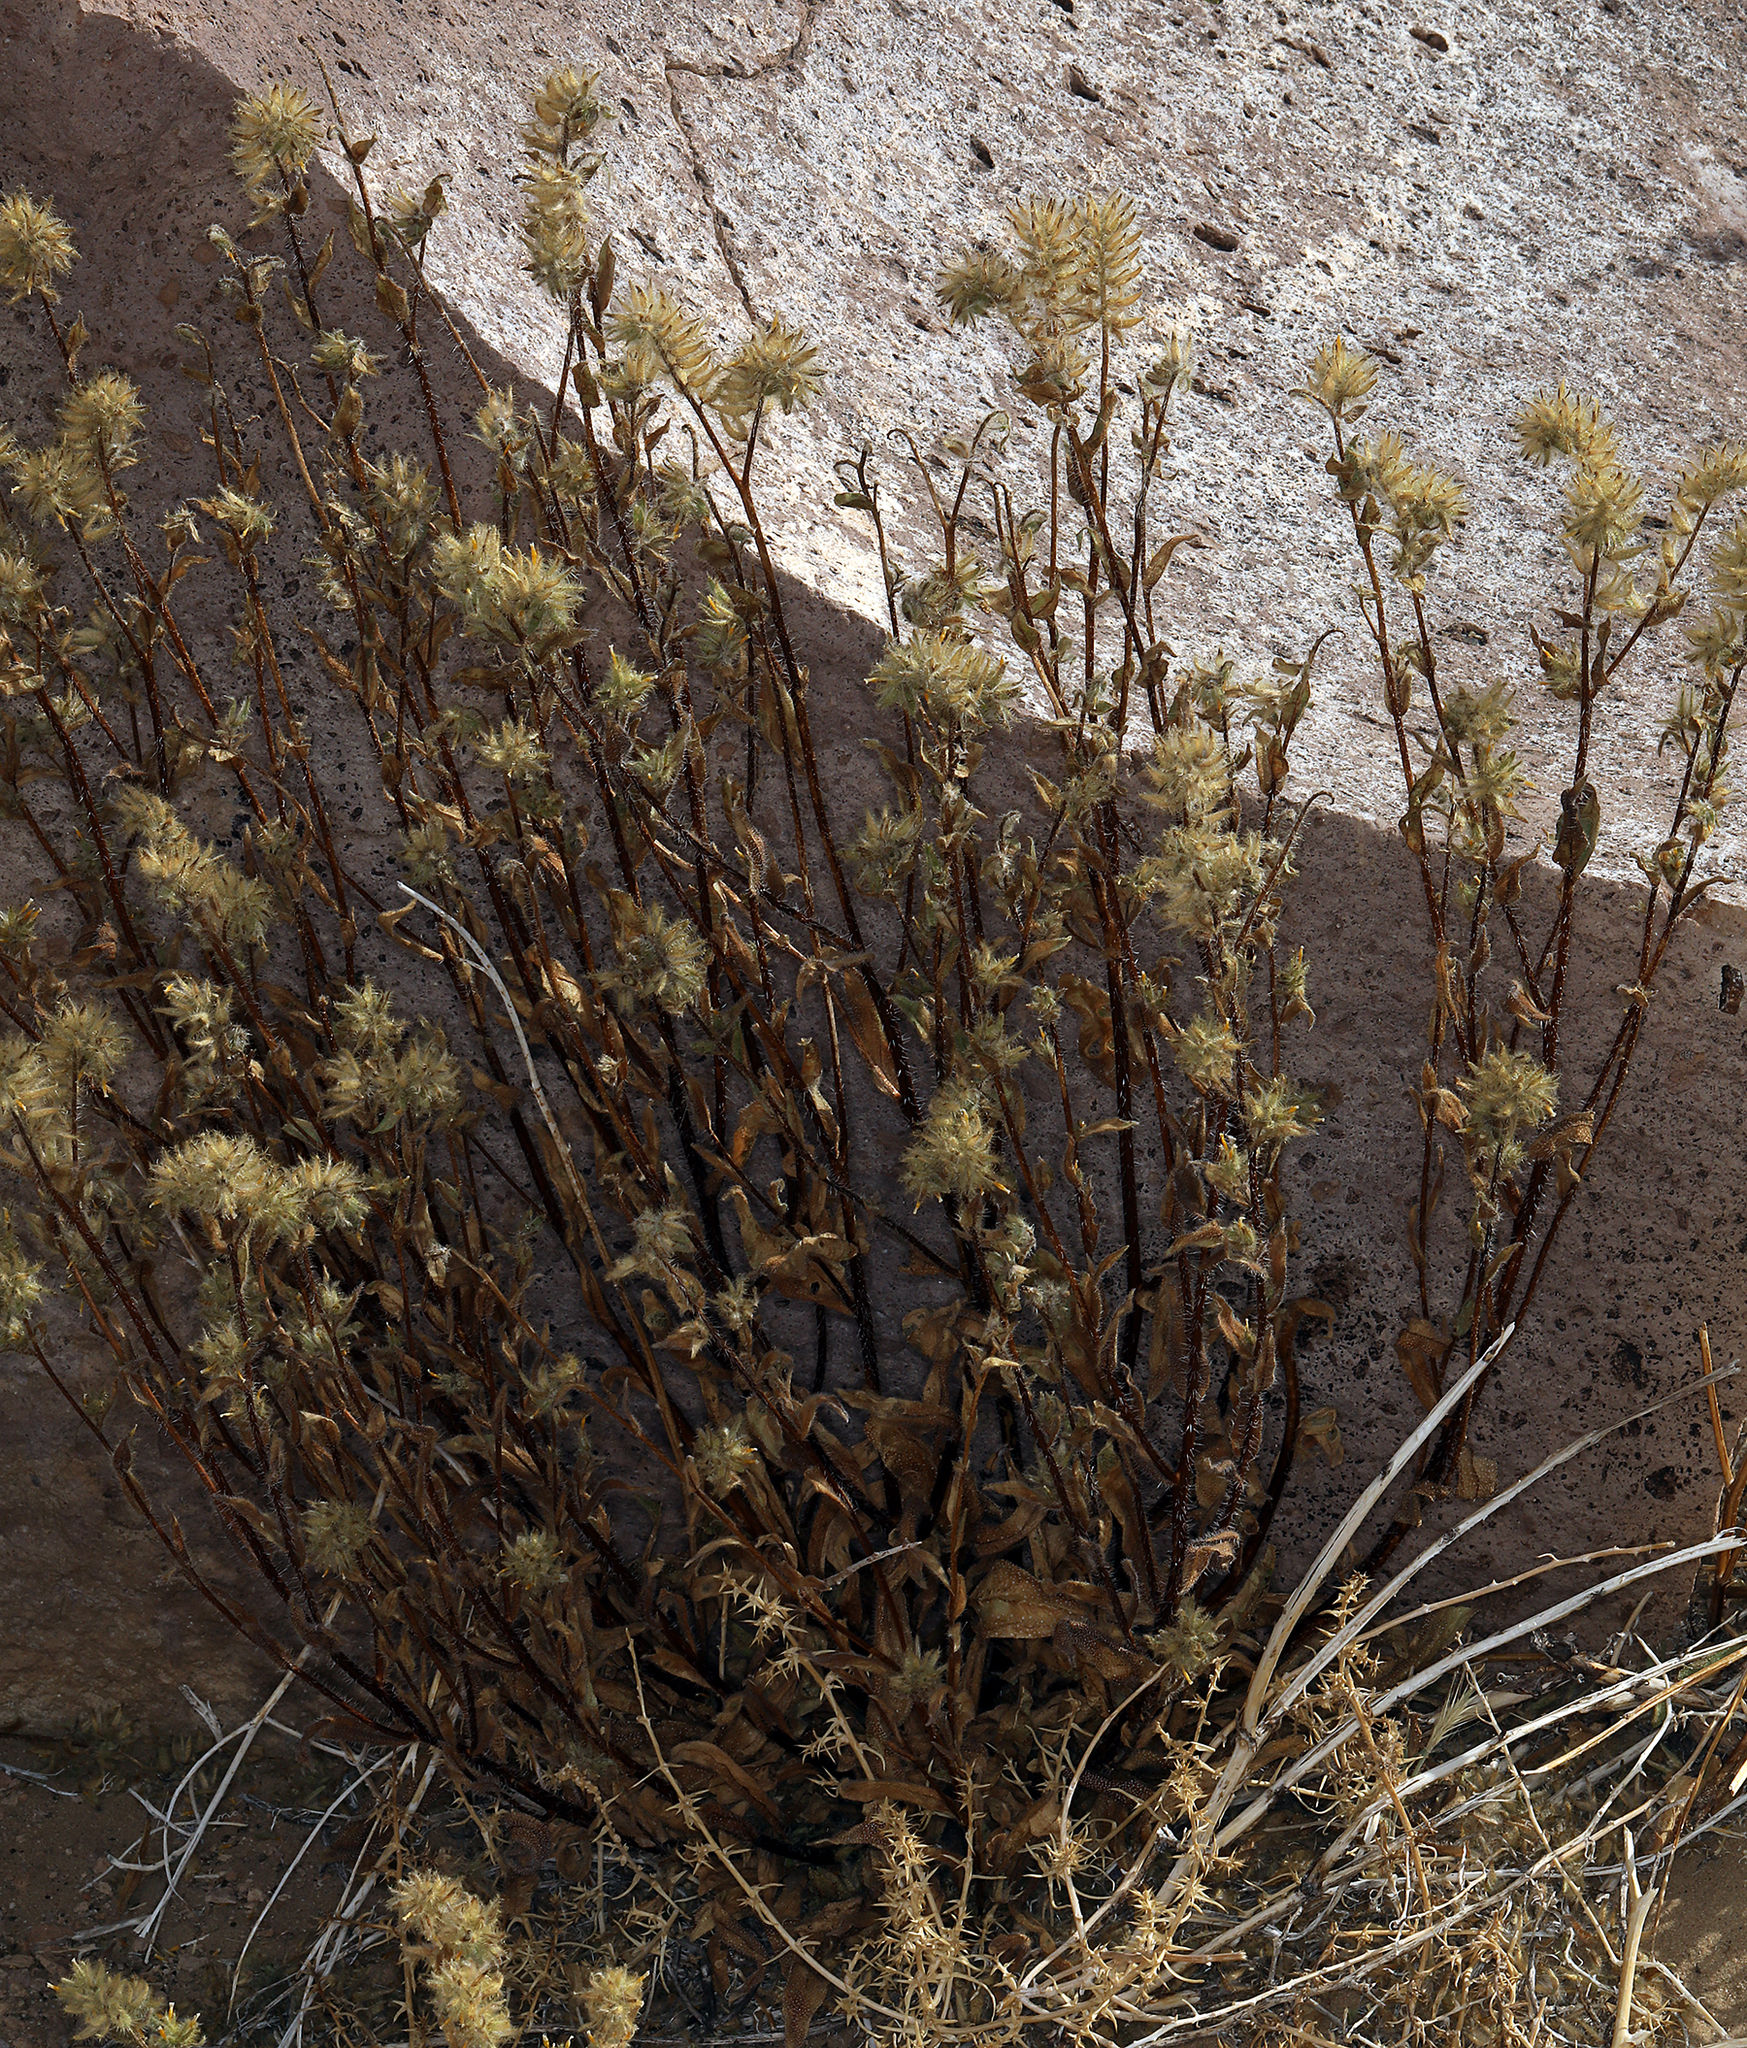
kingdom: Plantae
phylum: Tracheophyta
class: Magnoliopsida
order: Boraginales
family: Boraginaceae
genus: Amsinckia
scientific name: Amsinckia tessellata
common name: Tessellate fiddleneck
